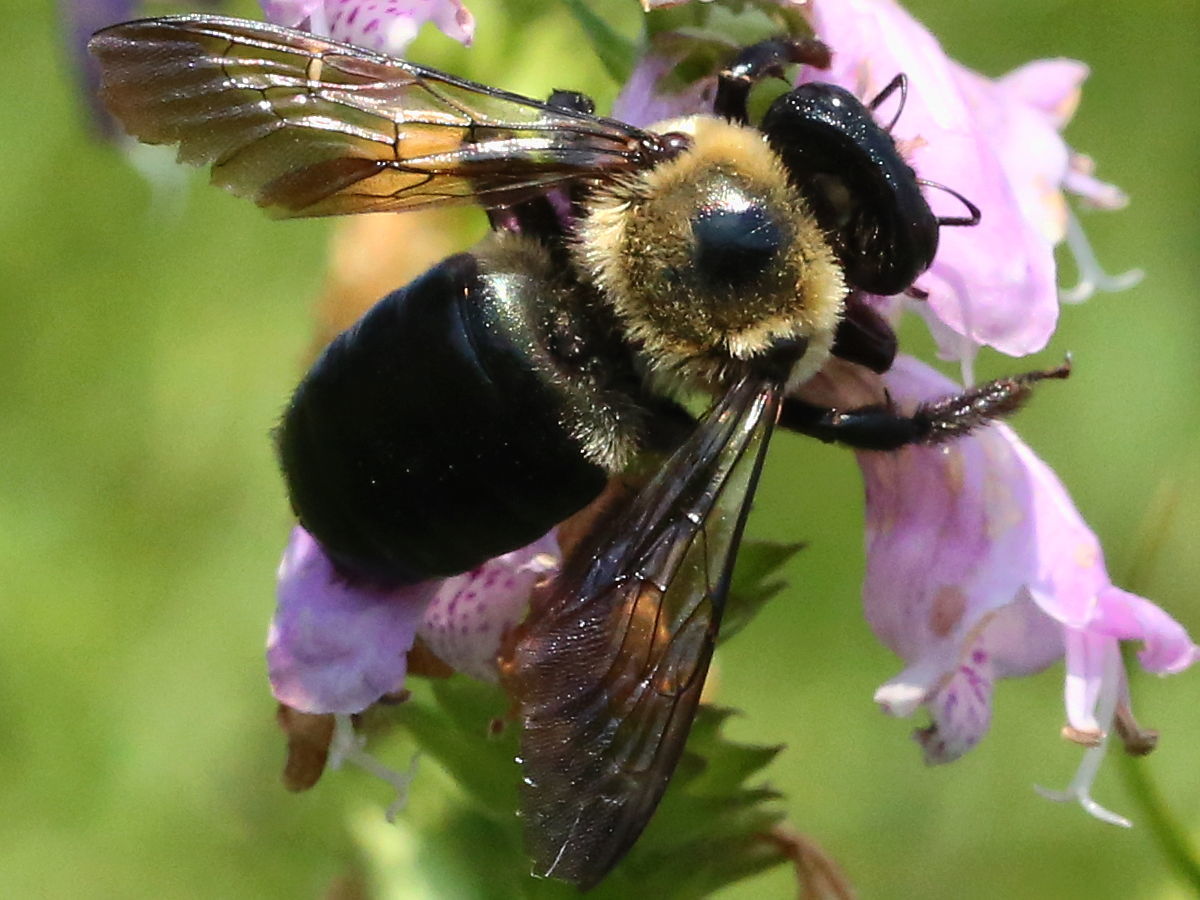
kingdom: Animalia
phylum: Arthropoda
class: Insecta
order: Hymenoptera
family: Apidae
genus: Xylocopa
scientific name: Xylocopa virginica
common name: Carpenter bee
